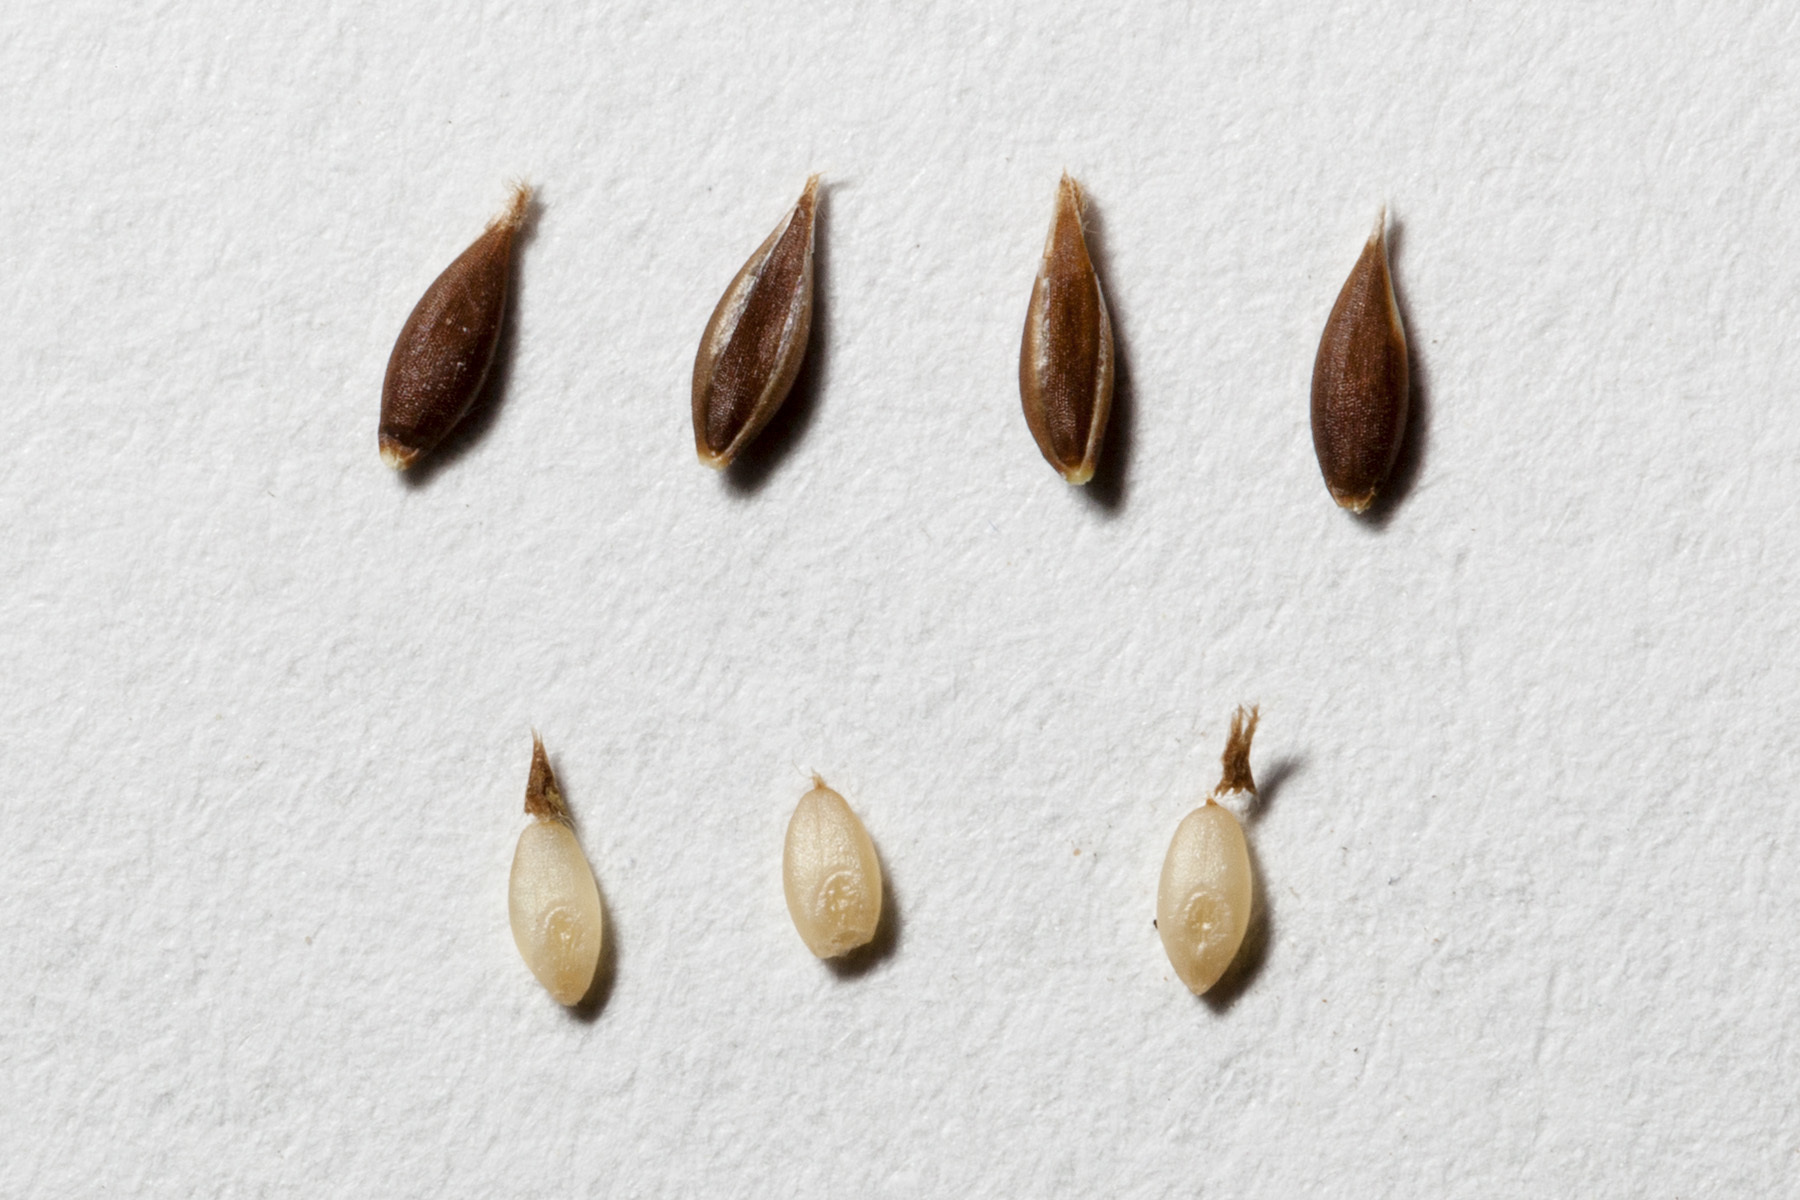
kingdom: Plantae
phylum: Tracheophyta
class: Liliopsida
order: Poales
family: Poaceae
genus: Digitaria
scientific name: Digitaria californica
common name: Arizona cottontop
